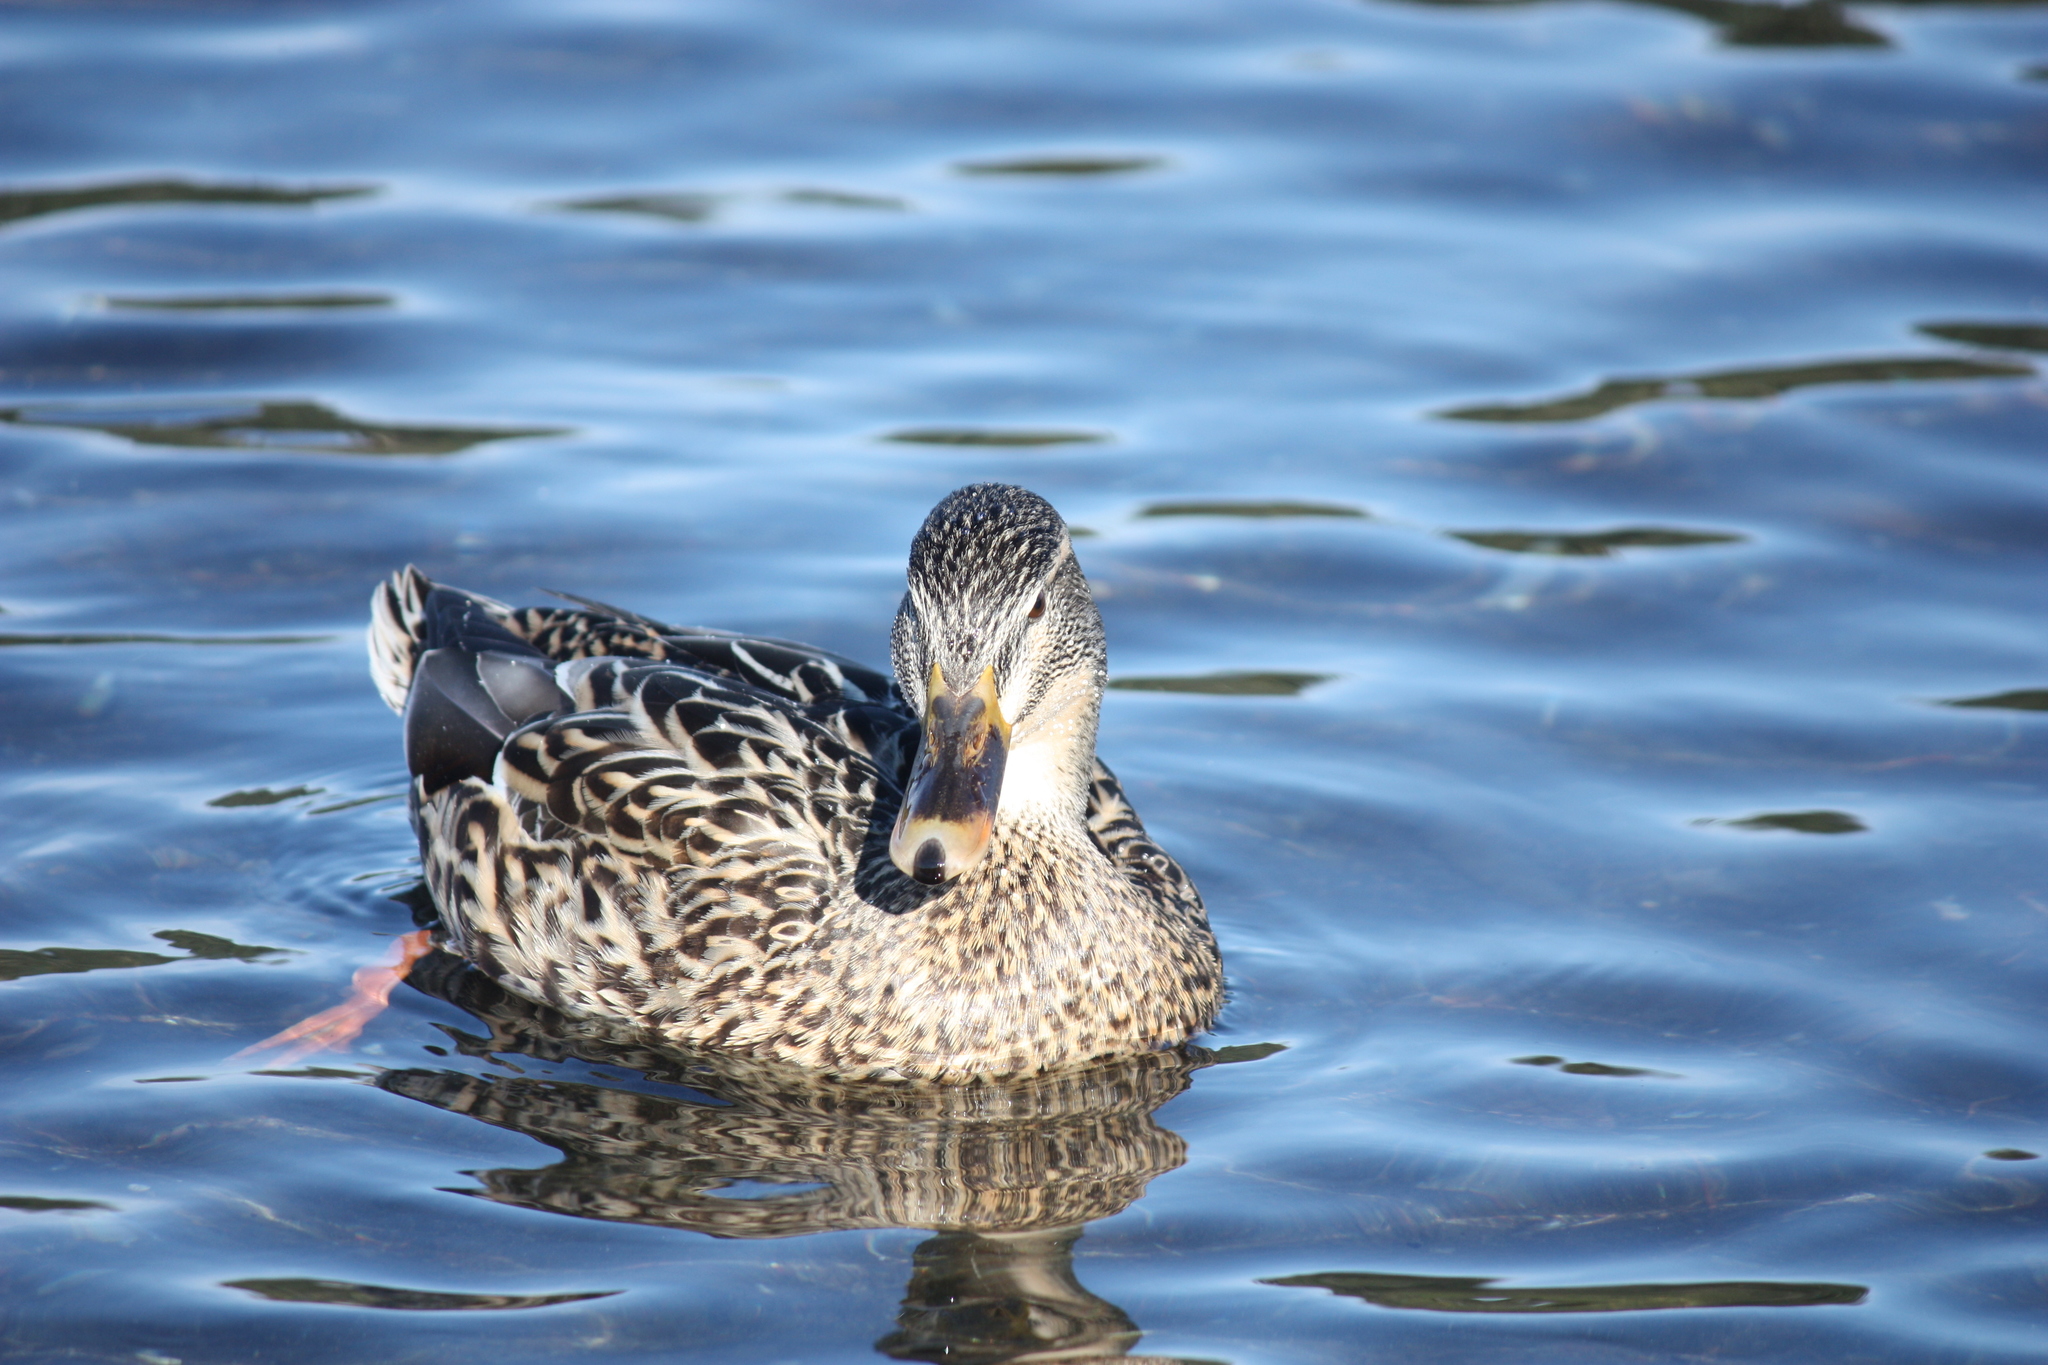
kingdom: Animalia
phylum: Chordata
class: Aves
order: Anseriformes
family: Anatidae
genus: Anas
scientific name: Anas platyrhynchos
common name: Mallard
